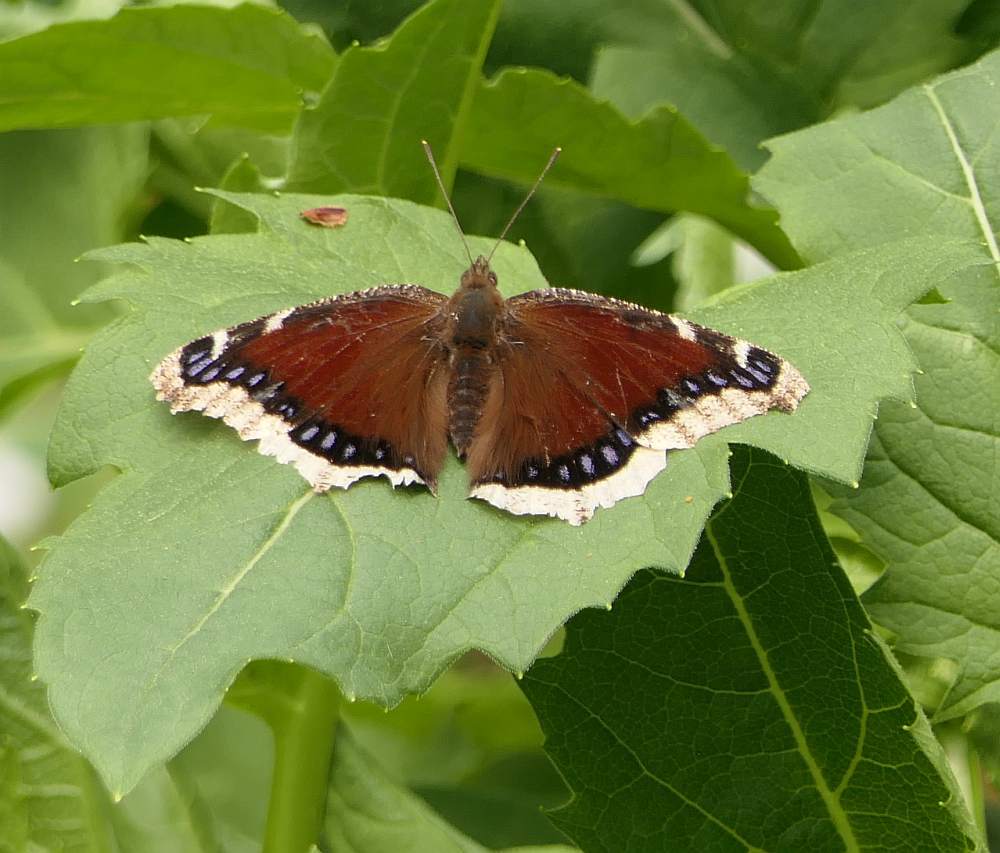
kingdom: Animalia
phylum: Arthropoda
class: Insecta
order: Lepidoptera
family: Nymphalidae
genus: Nymphalis
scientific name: Nymphalis antiopa
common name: Camberwell beauty
